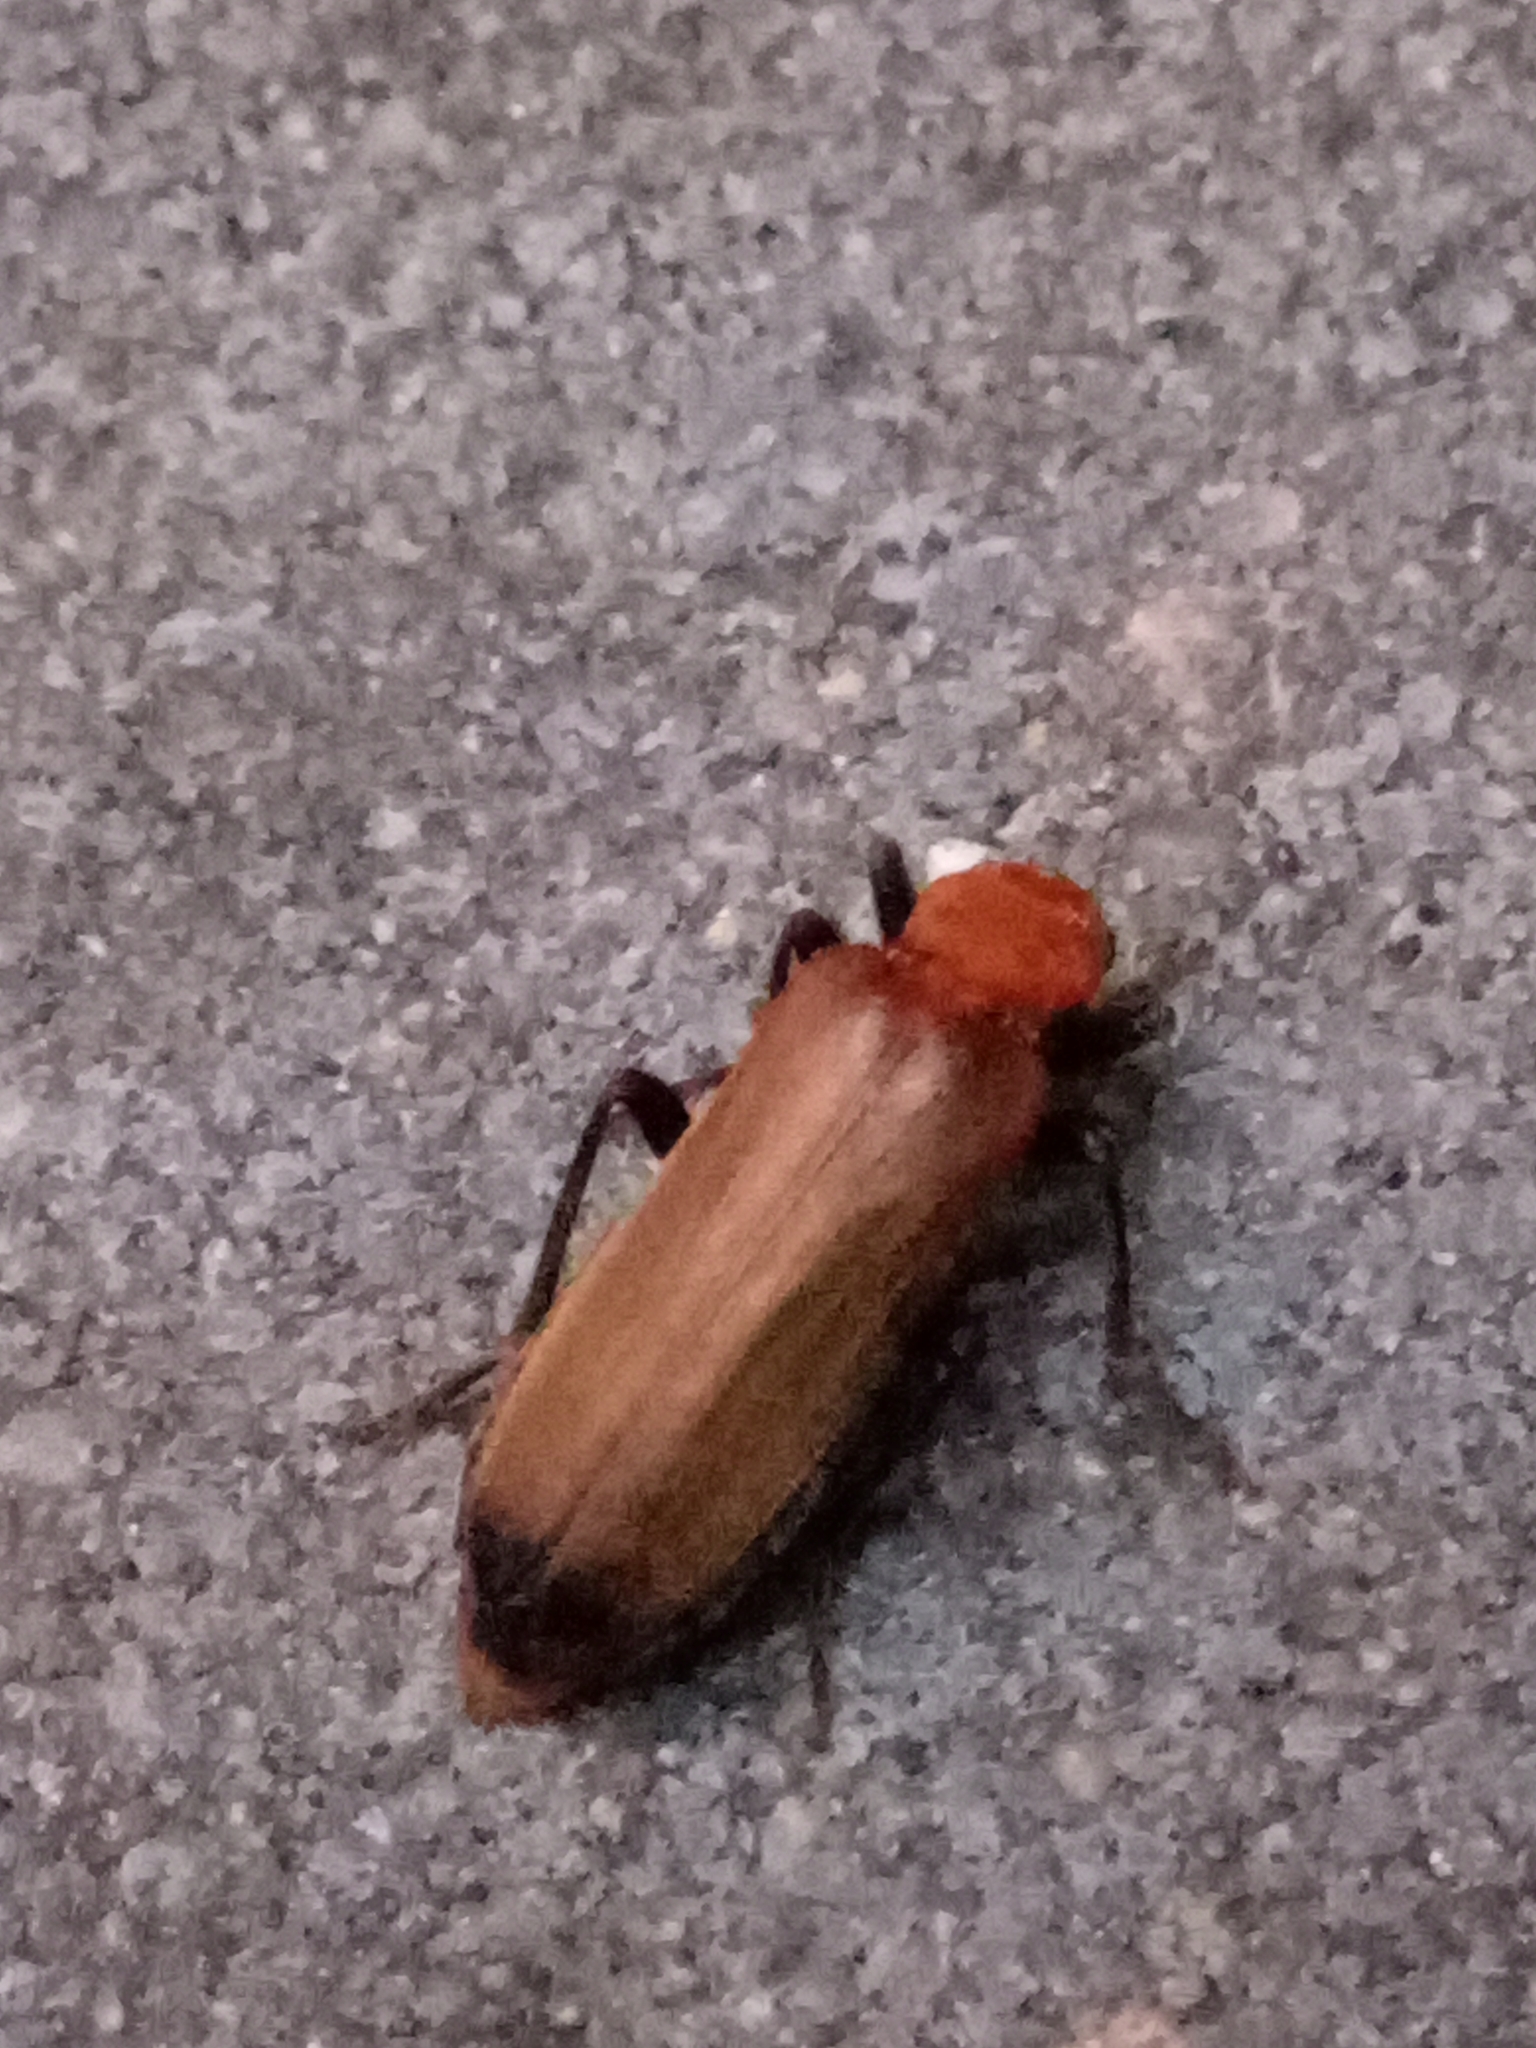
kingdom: Animalia
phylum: Arthropoda
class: Insecta
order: Coleoptera
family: Oedemeridae
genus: Nacerdes
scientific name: Nacerdes melanura
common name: Wharf borer
